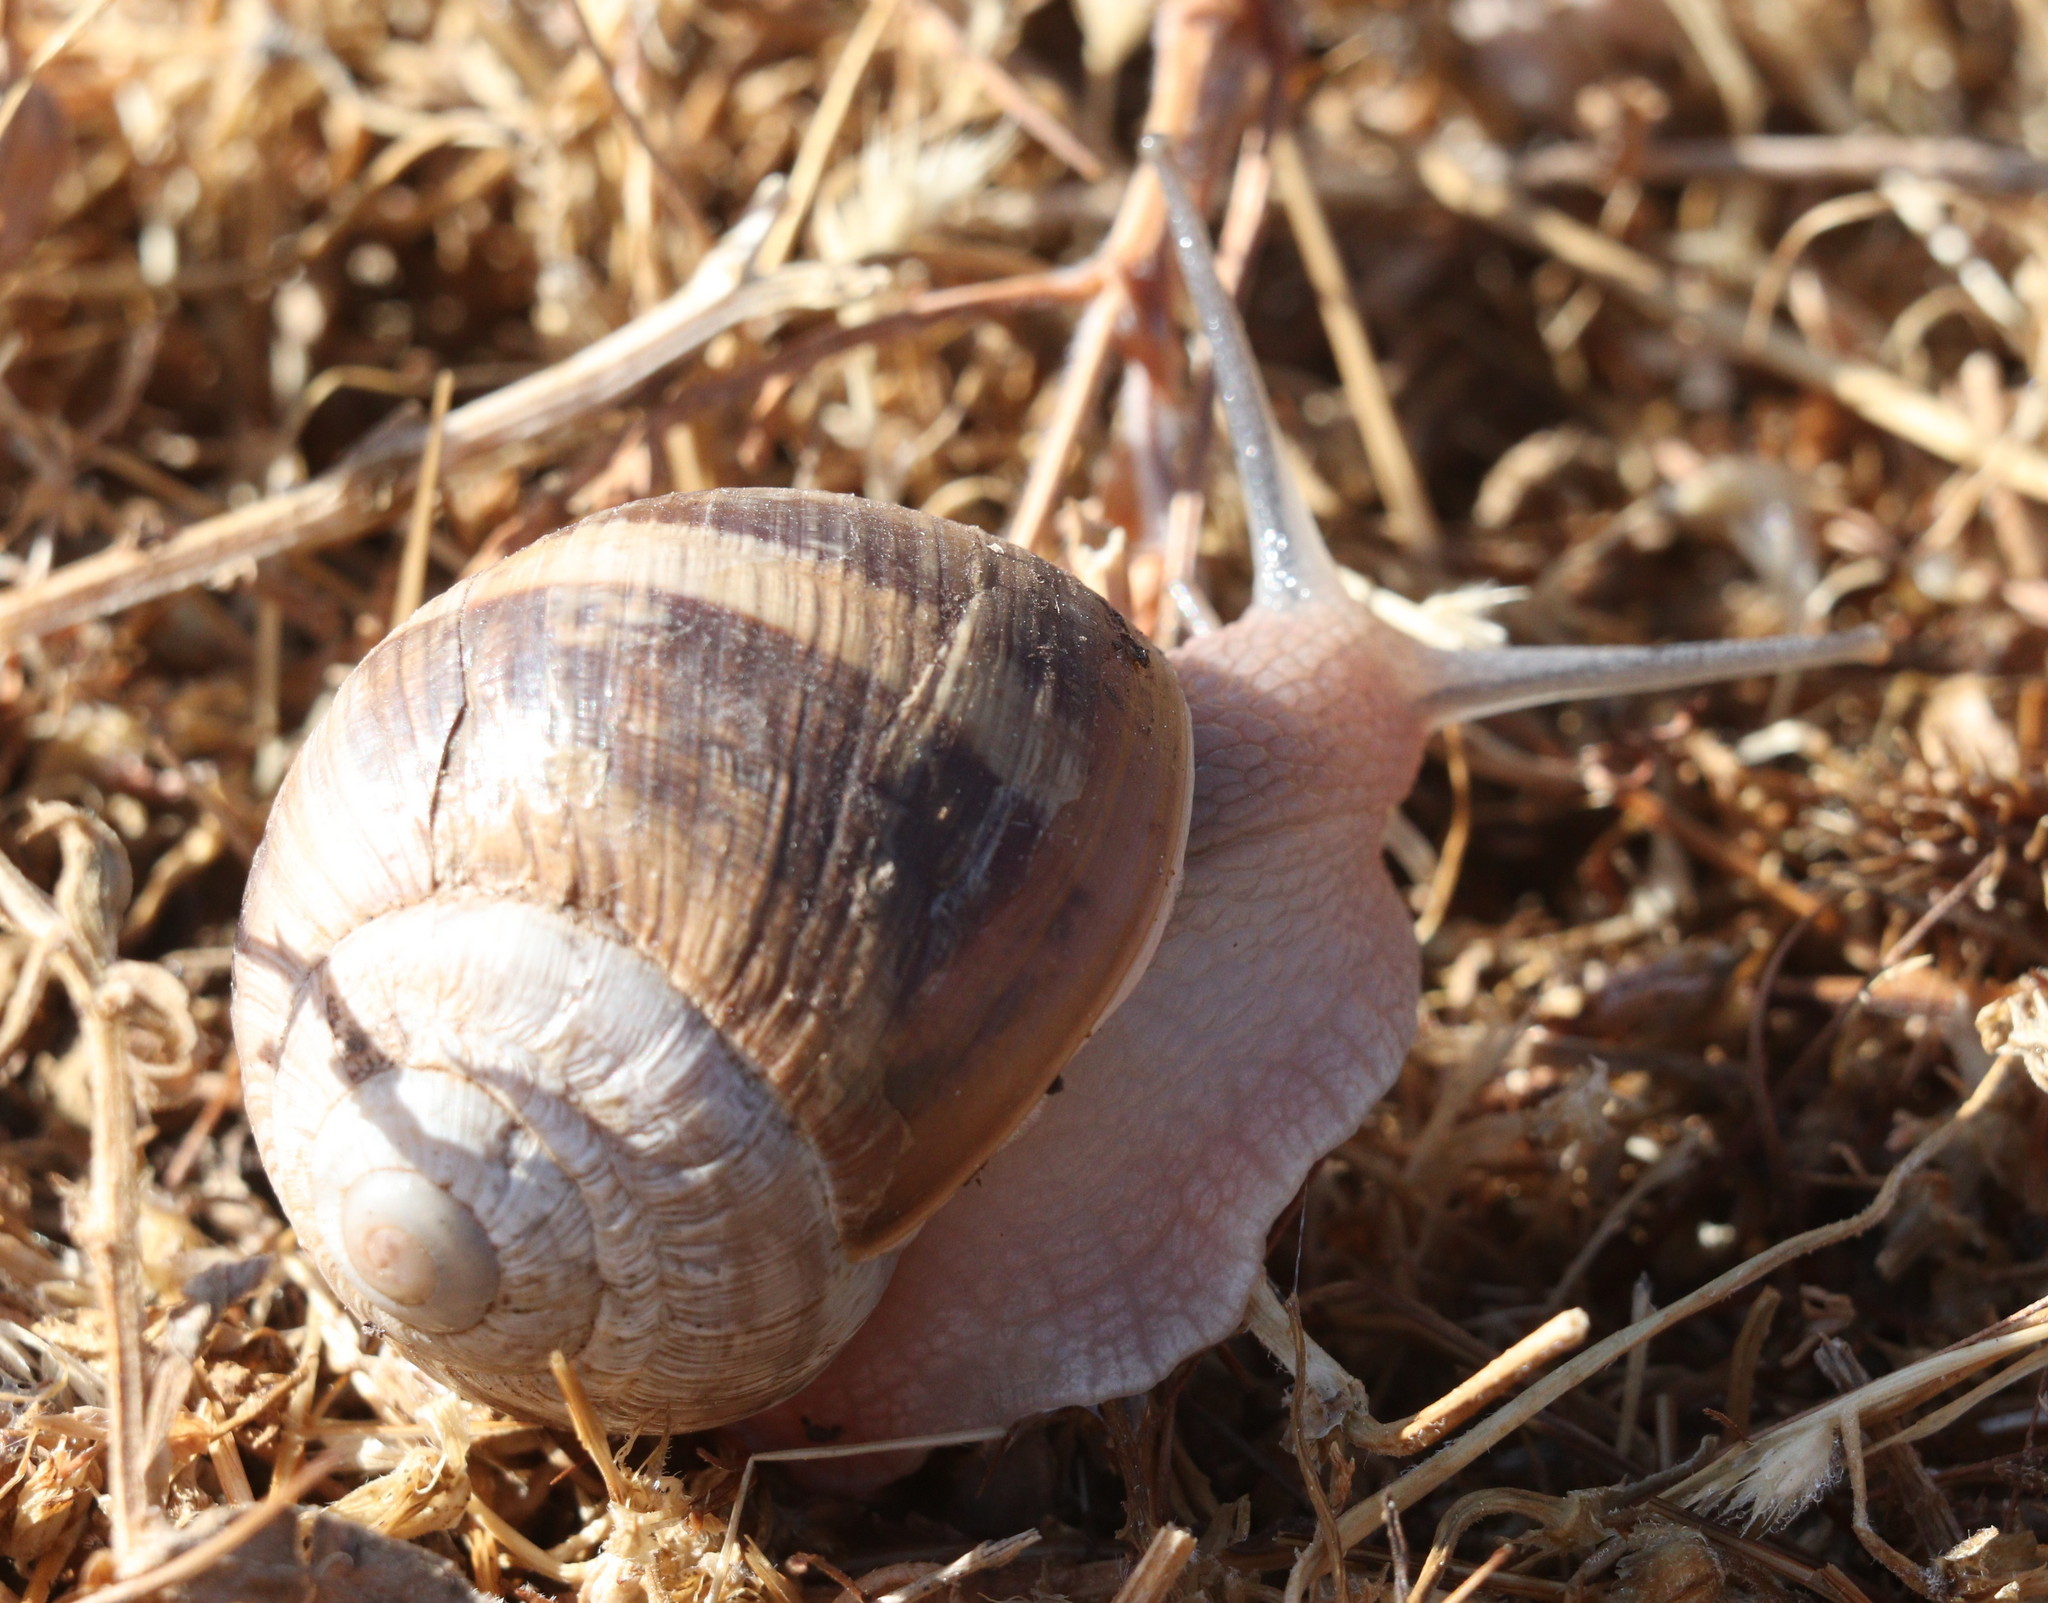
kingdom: Animalia
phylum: Mollusca
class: Gastropoda
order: Stylommatophora
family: Helicidae
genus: Helix
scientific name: Helix asemnis
